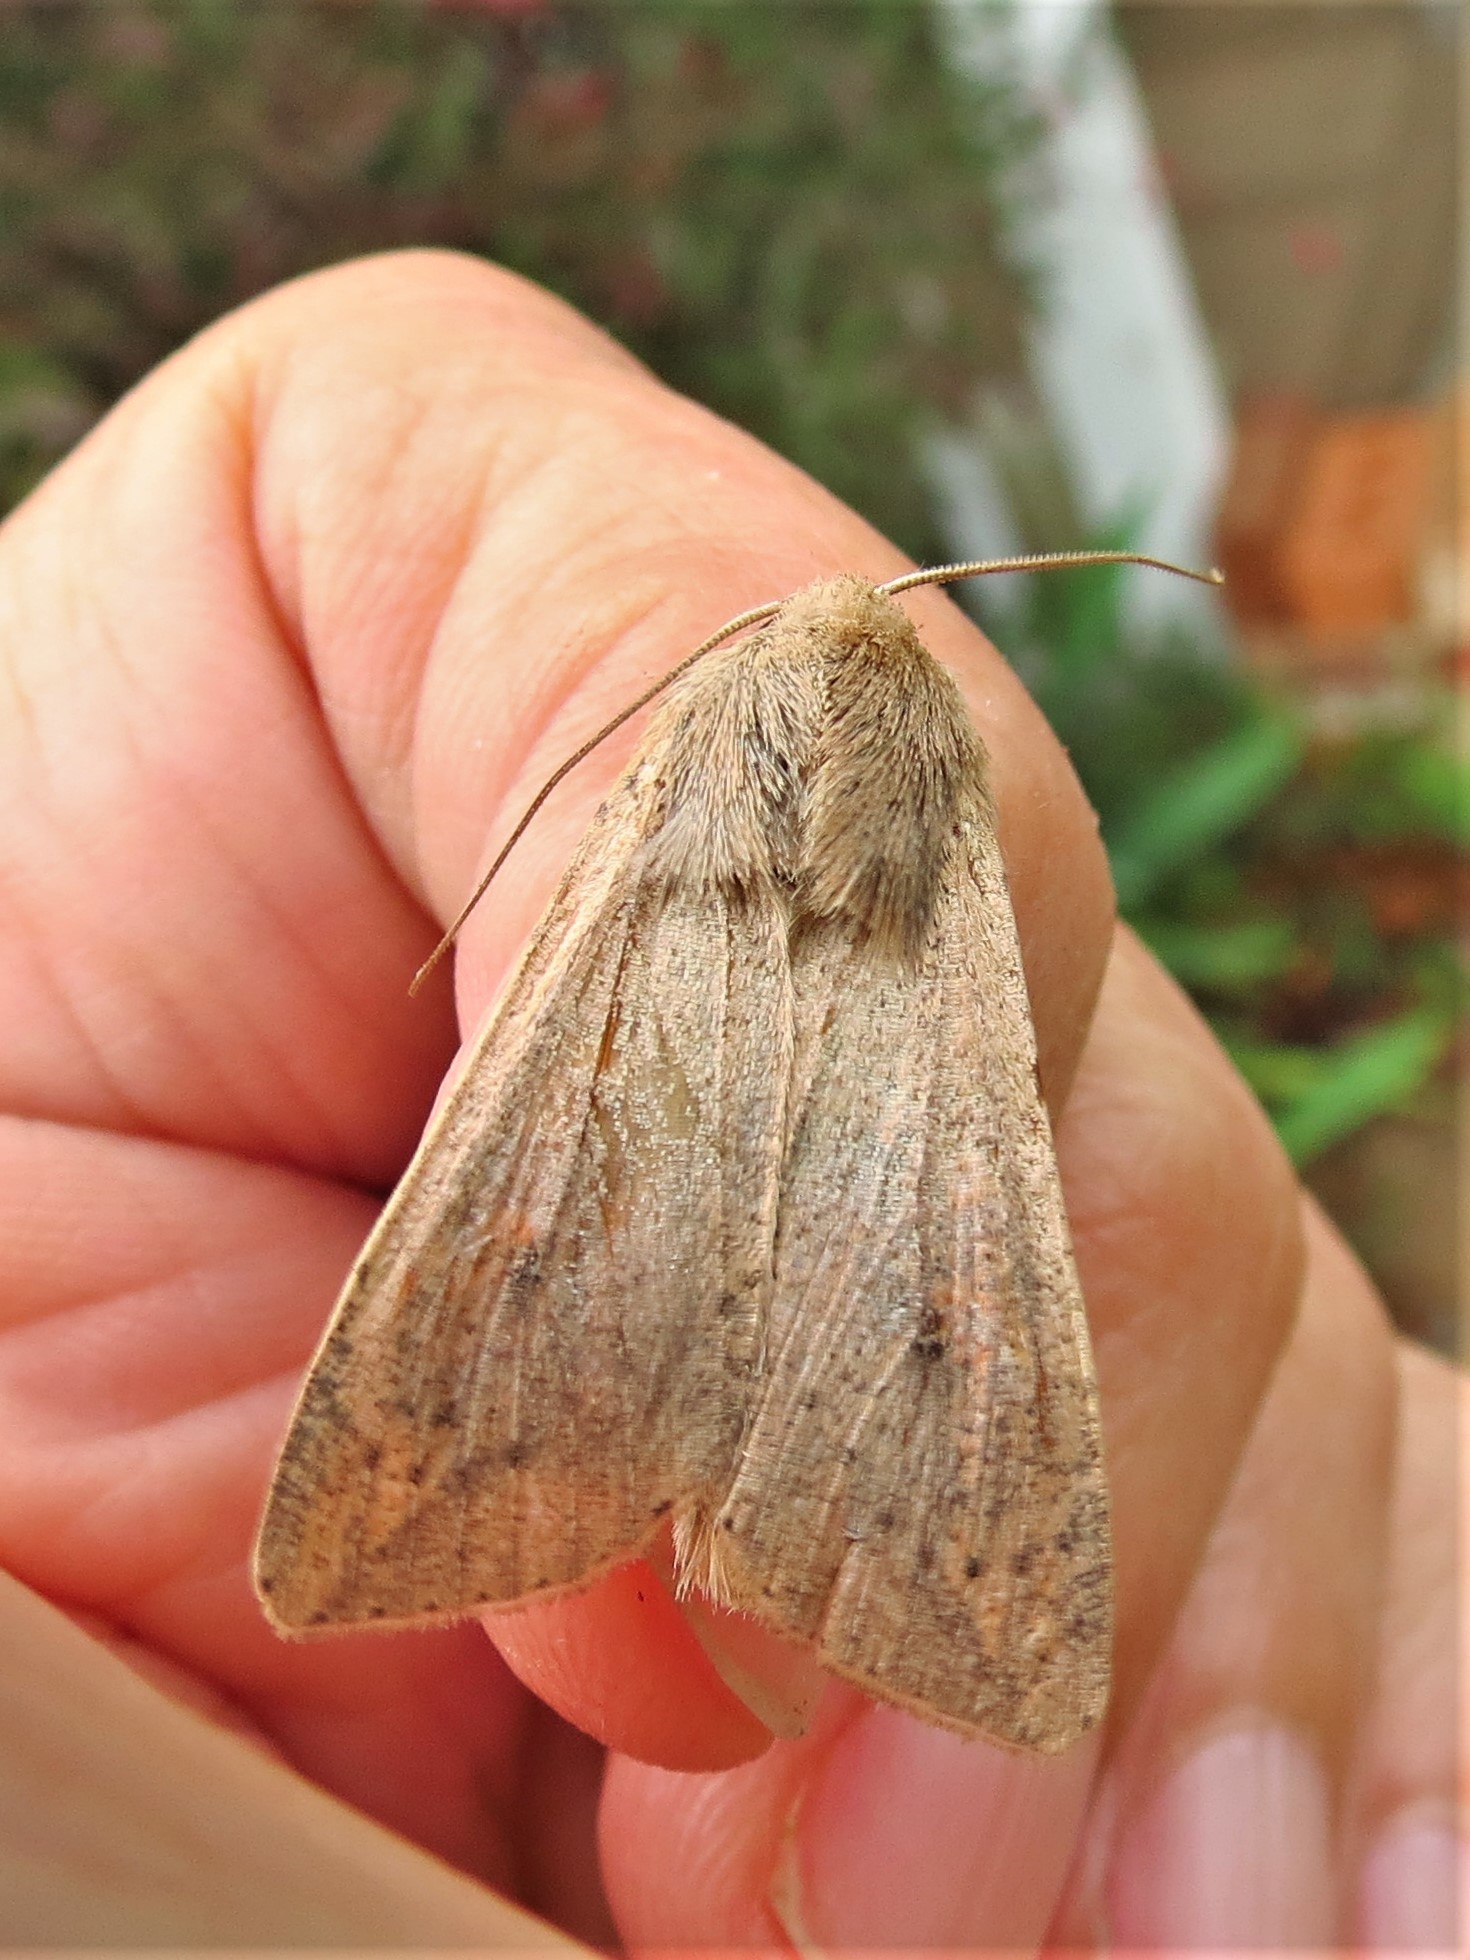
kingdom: Animalia
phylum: Arthropoda
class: Insecta
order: Lepidoptera
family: Noctuidae
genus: Mythimna
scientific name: Mythimna unipuncta
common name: White-speck
